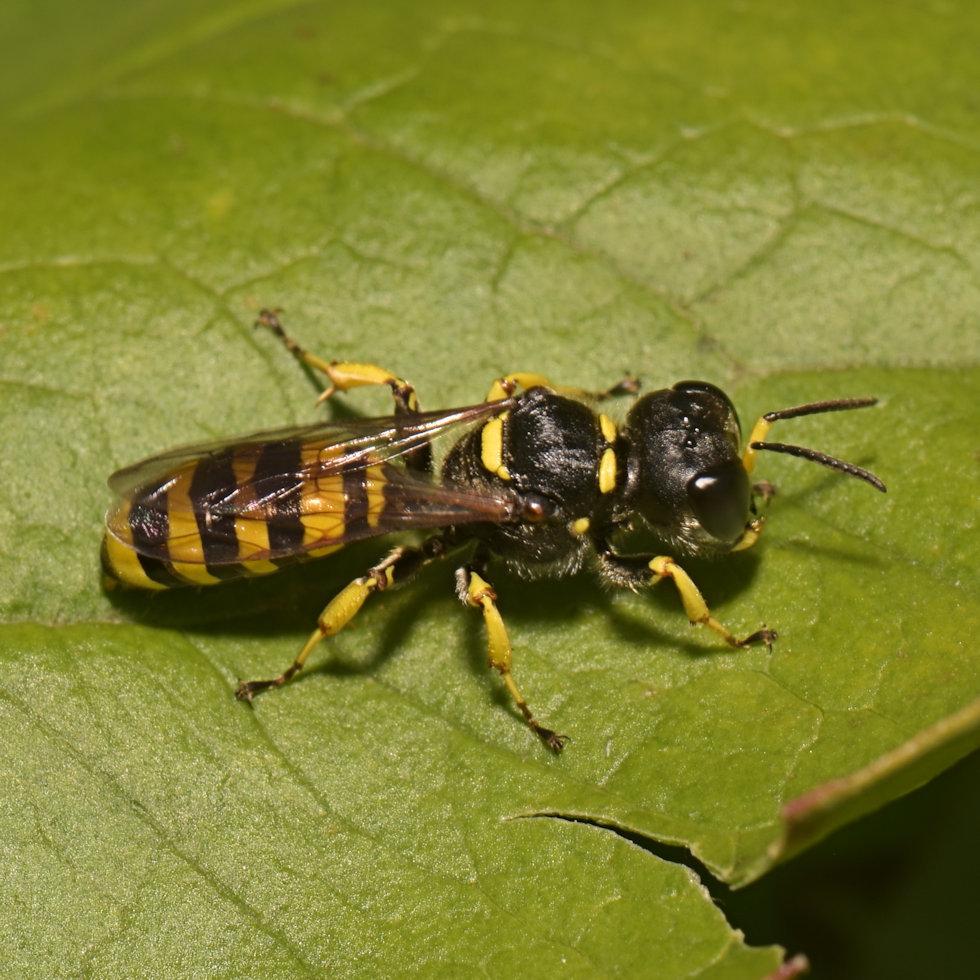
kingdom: Animalia
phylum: Arthropoda
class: Insecta
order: Hymenoptera
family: Crabronidae
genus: Ectemnius
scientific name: Ectemnius cephalotes
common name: Sphecid wasp
